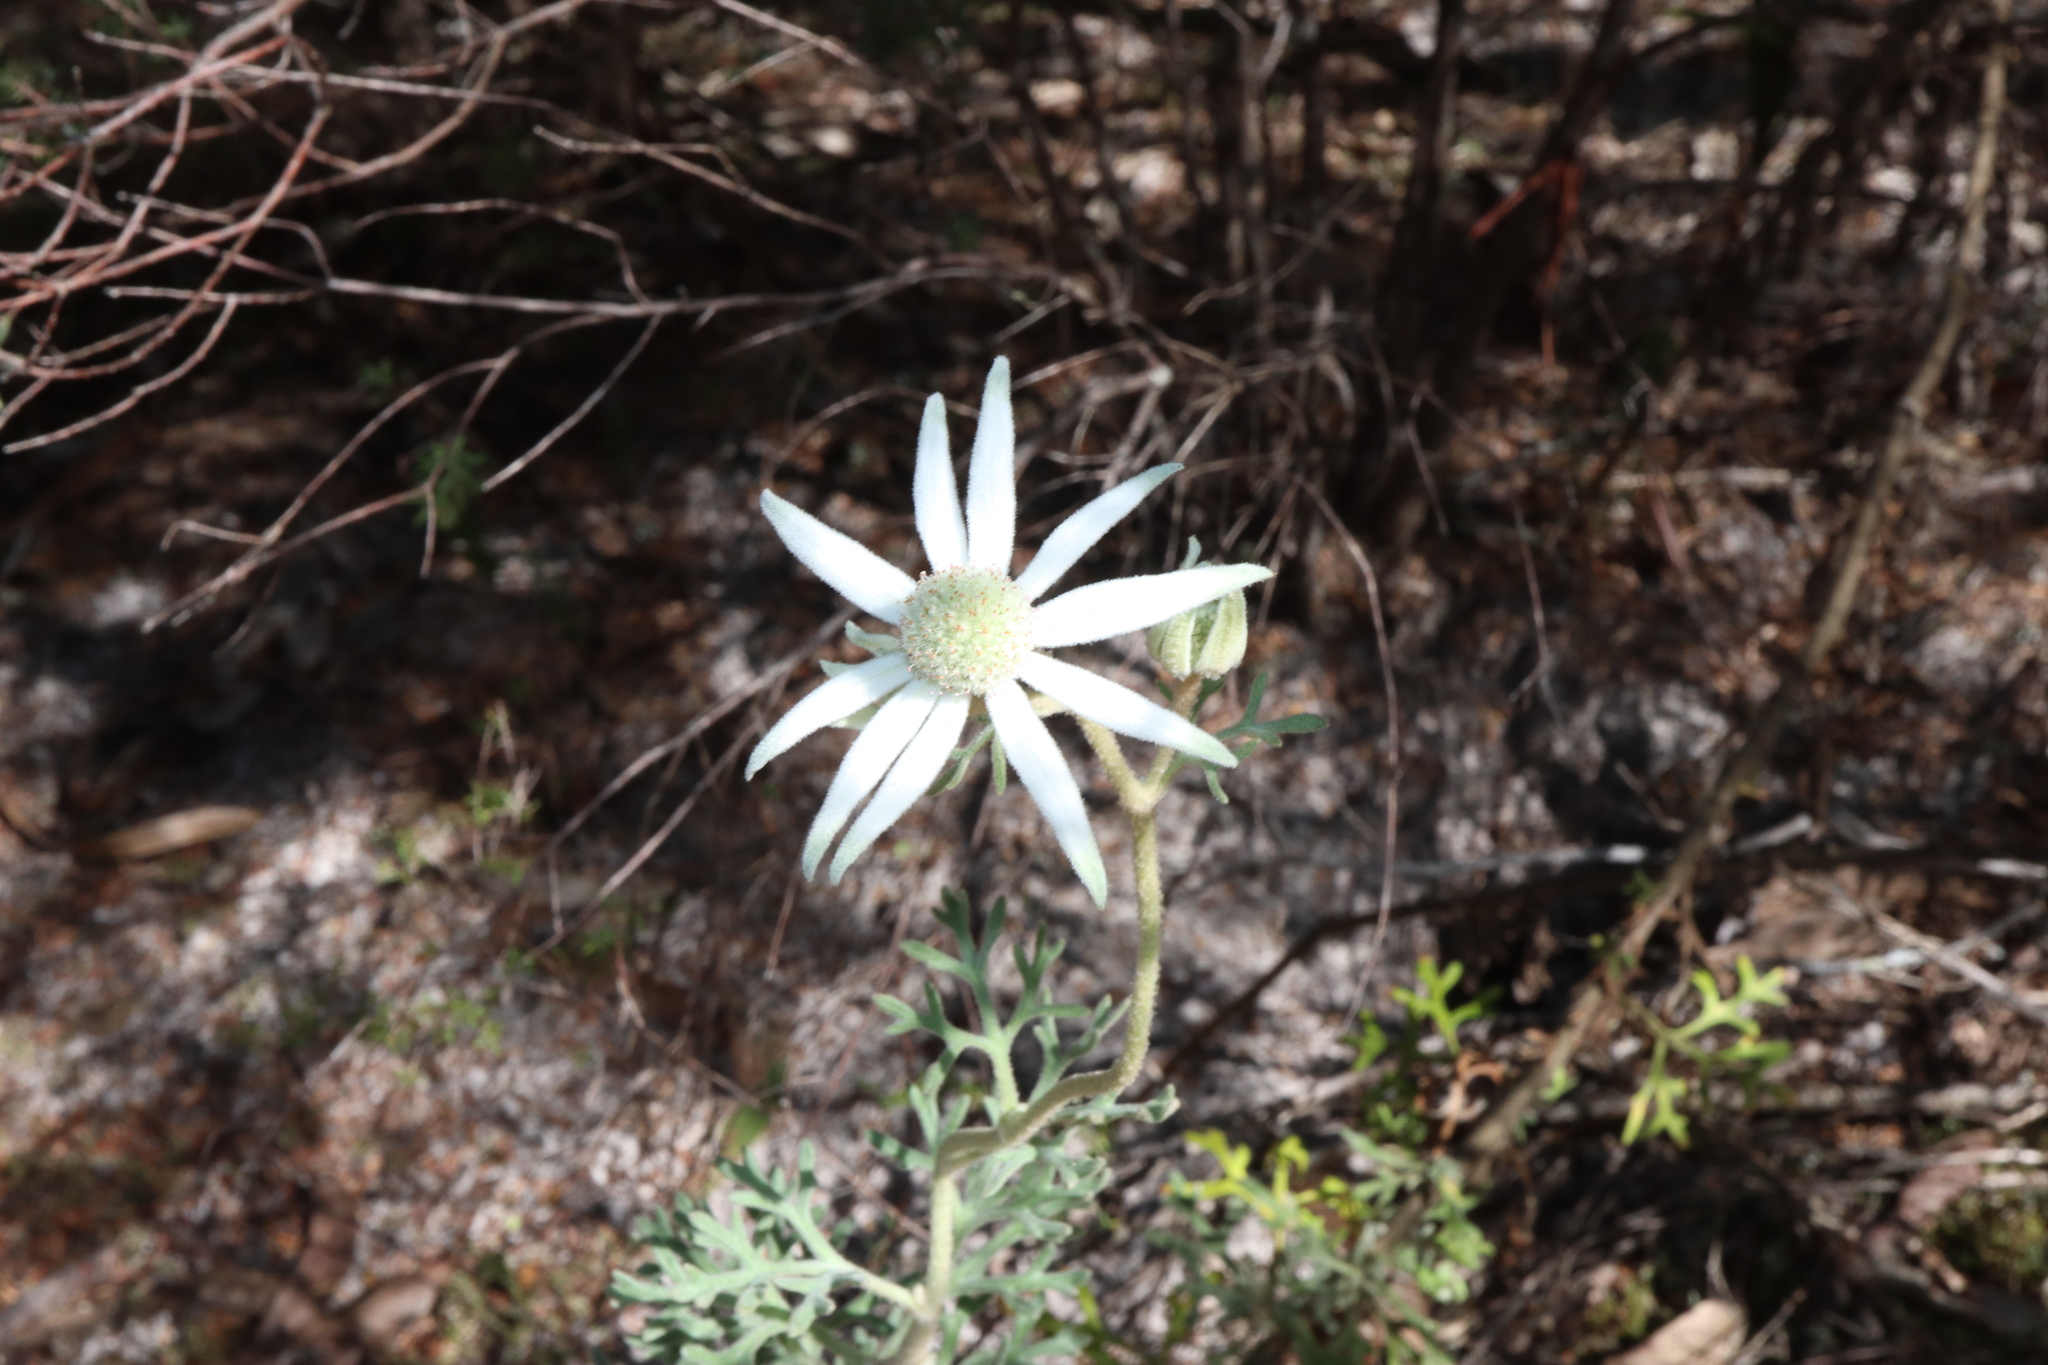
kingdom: Plantae
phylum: Tracheophyta
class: Magnoliopsida
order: Apiales
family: Apiaceae
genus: Actinotus
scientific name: Actinotus helianthi
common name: Flannel-flower
